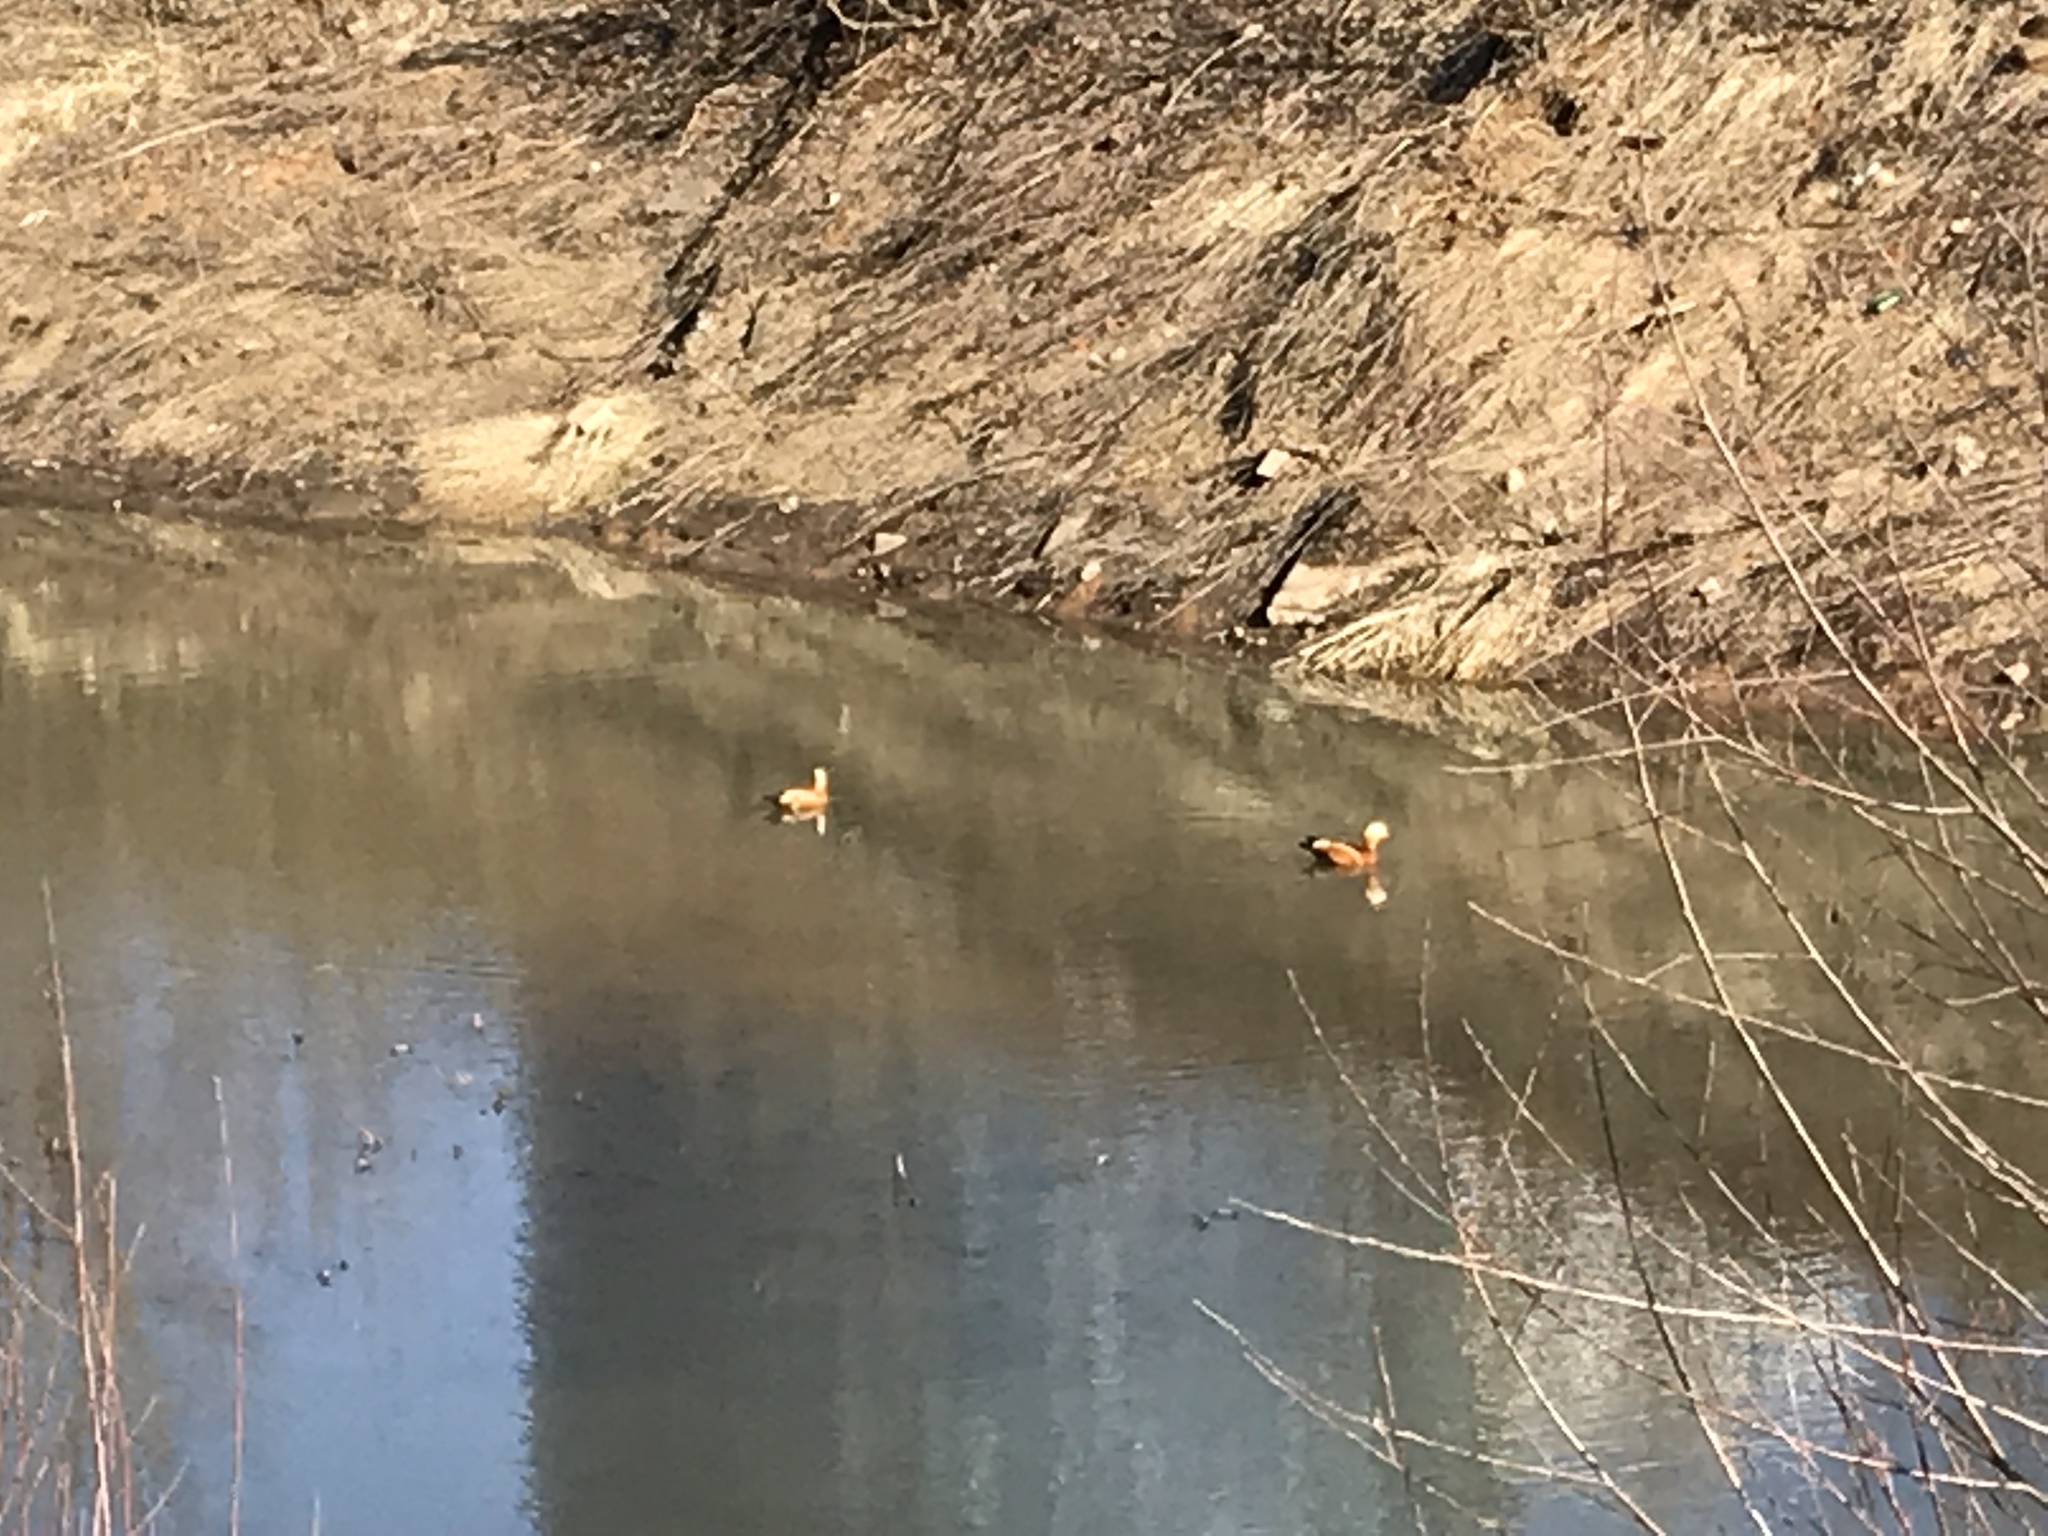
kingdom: Animalia
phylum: Chordata
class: Aves
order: Anseriformes
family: Anatidae
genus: Tadorna
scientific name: Tadorna ferruginea
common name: Ruddy shelduck
